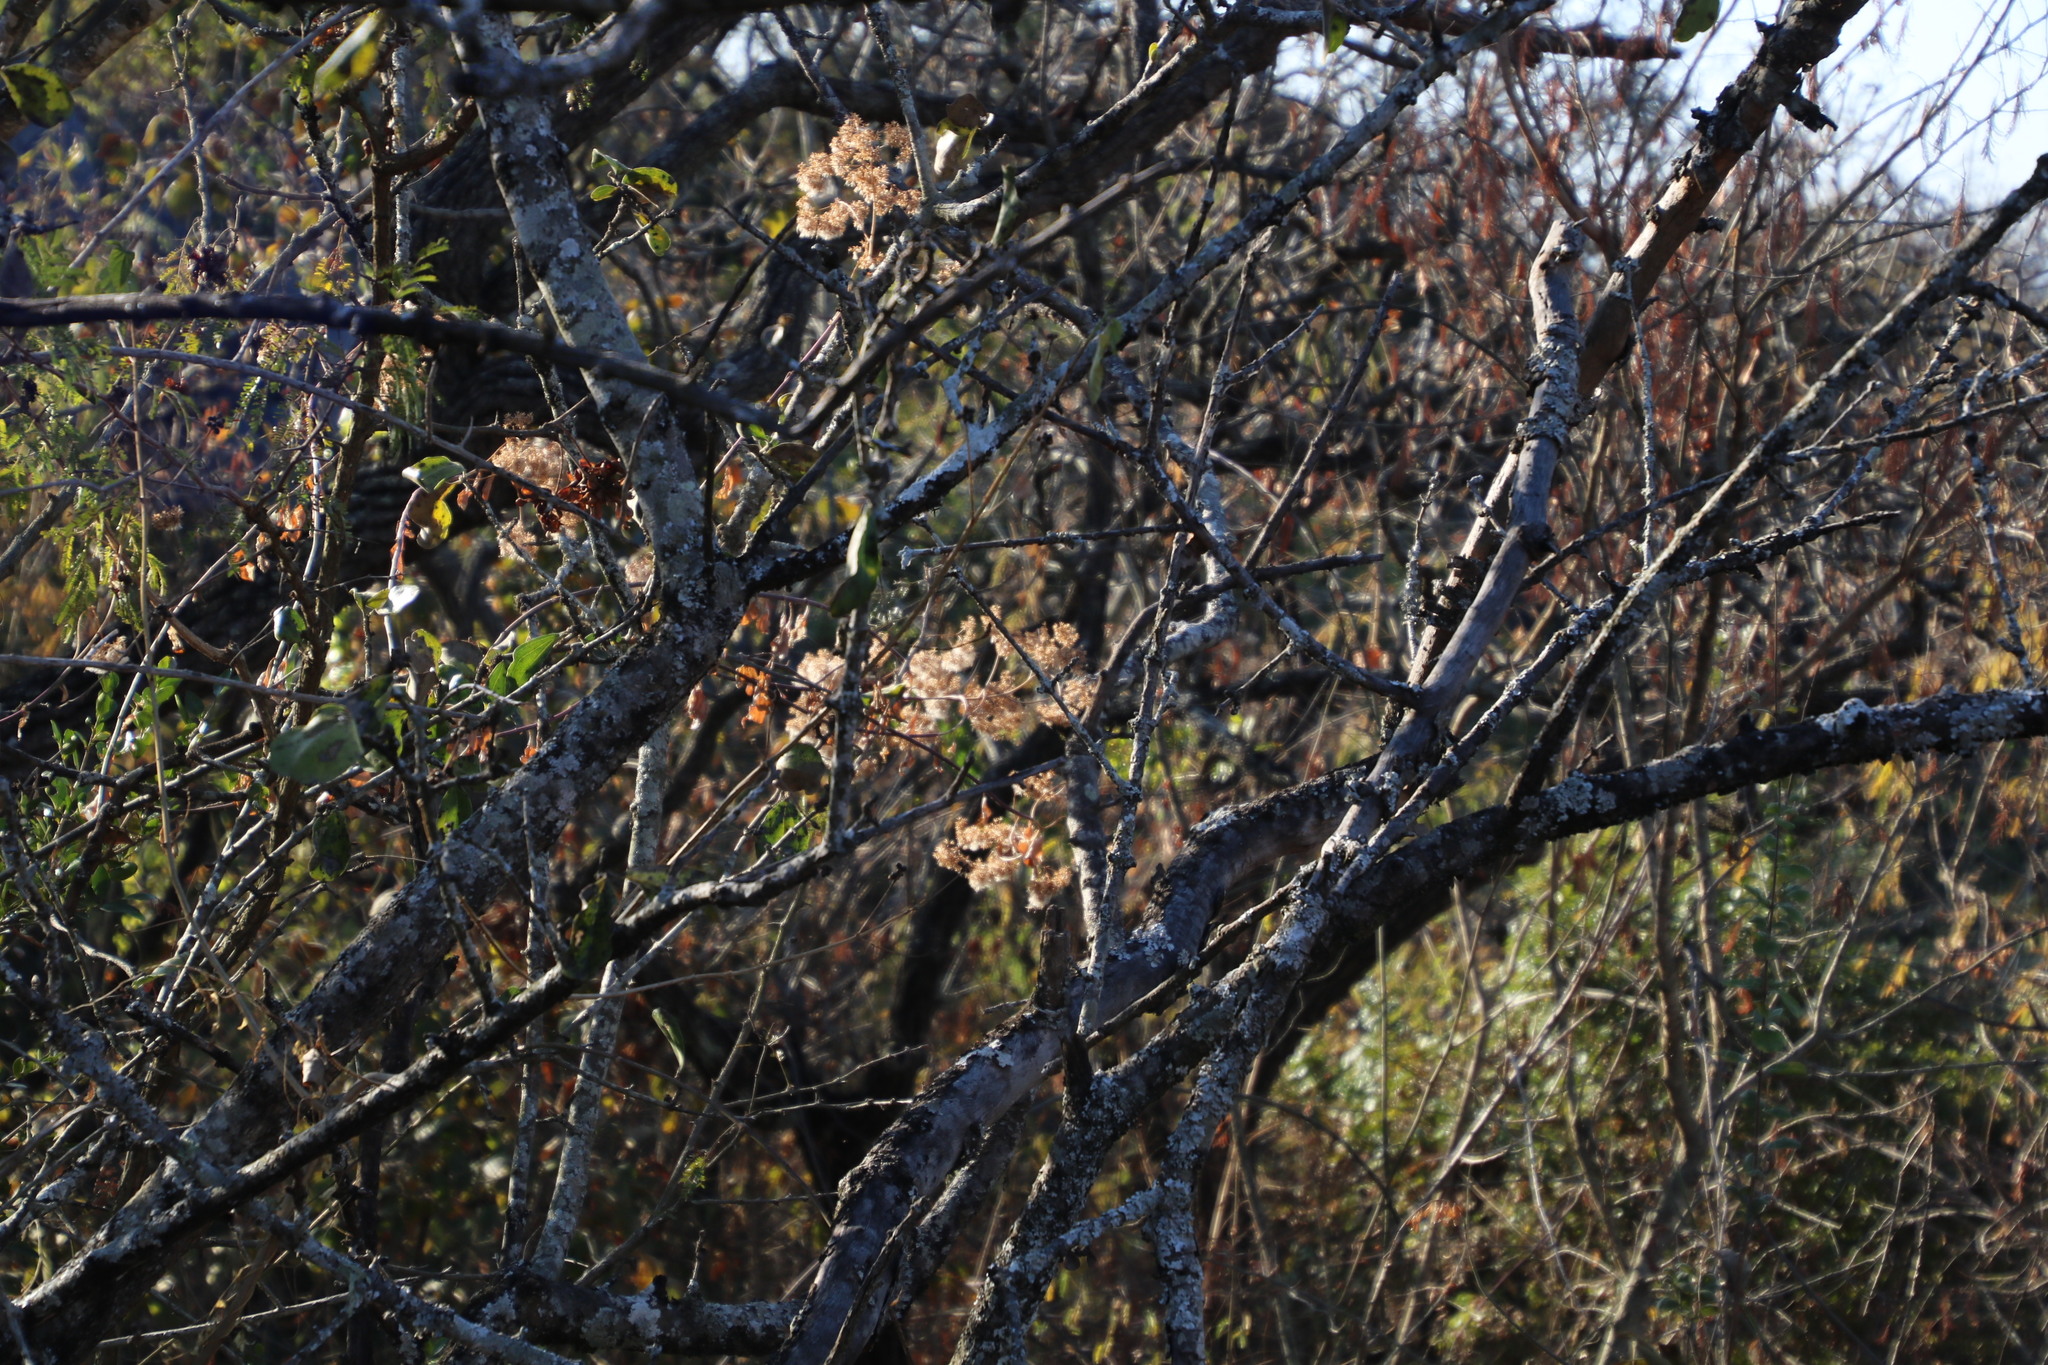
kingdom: Plantae
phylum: Tracheophyta
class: Magnoliopsida
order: Fabales
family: Fabaceae
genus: Senegalia
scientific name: Senegalia ataxacantha
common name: Flame acacia
